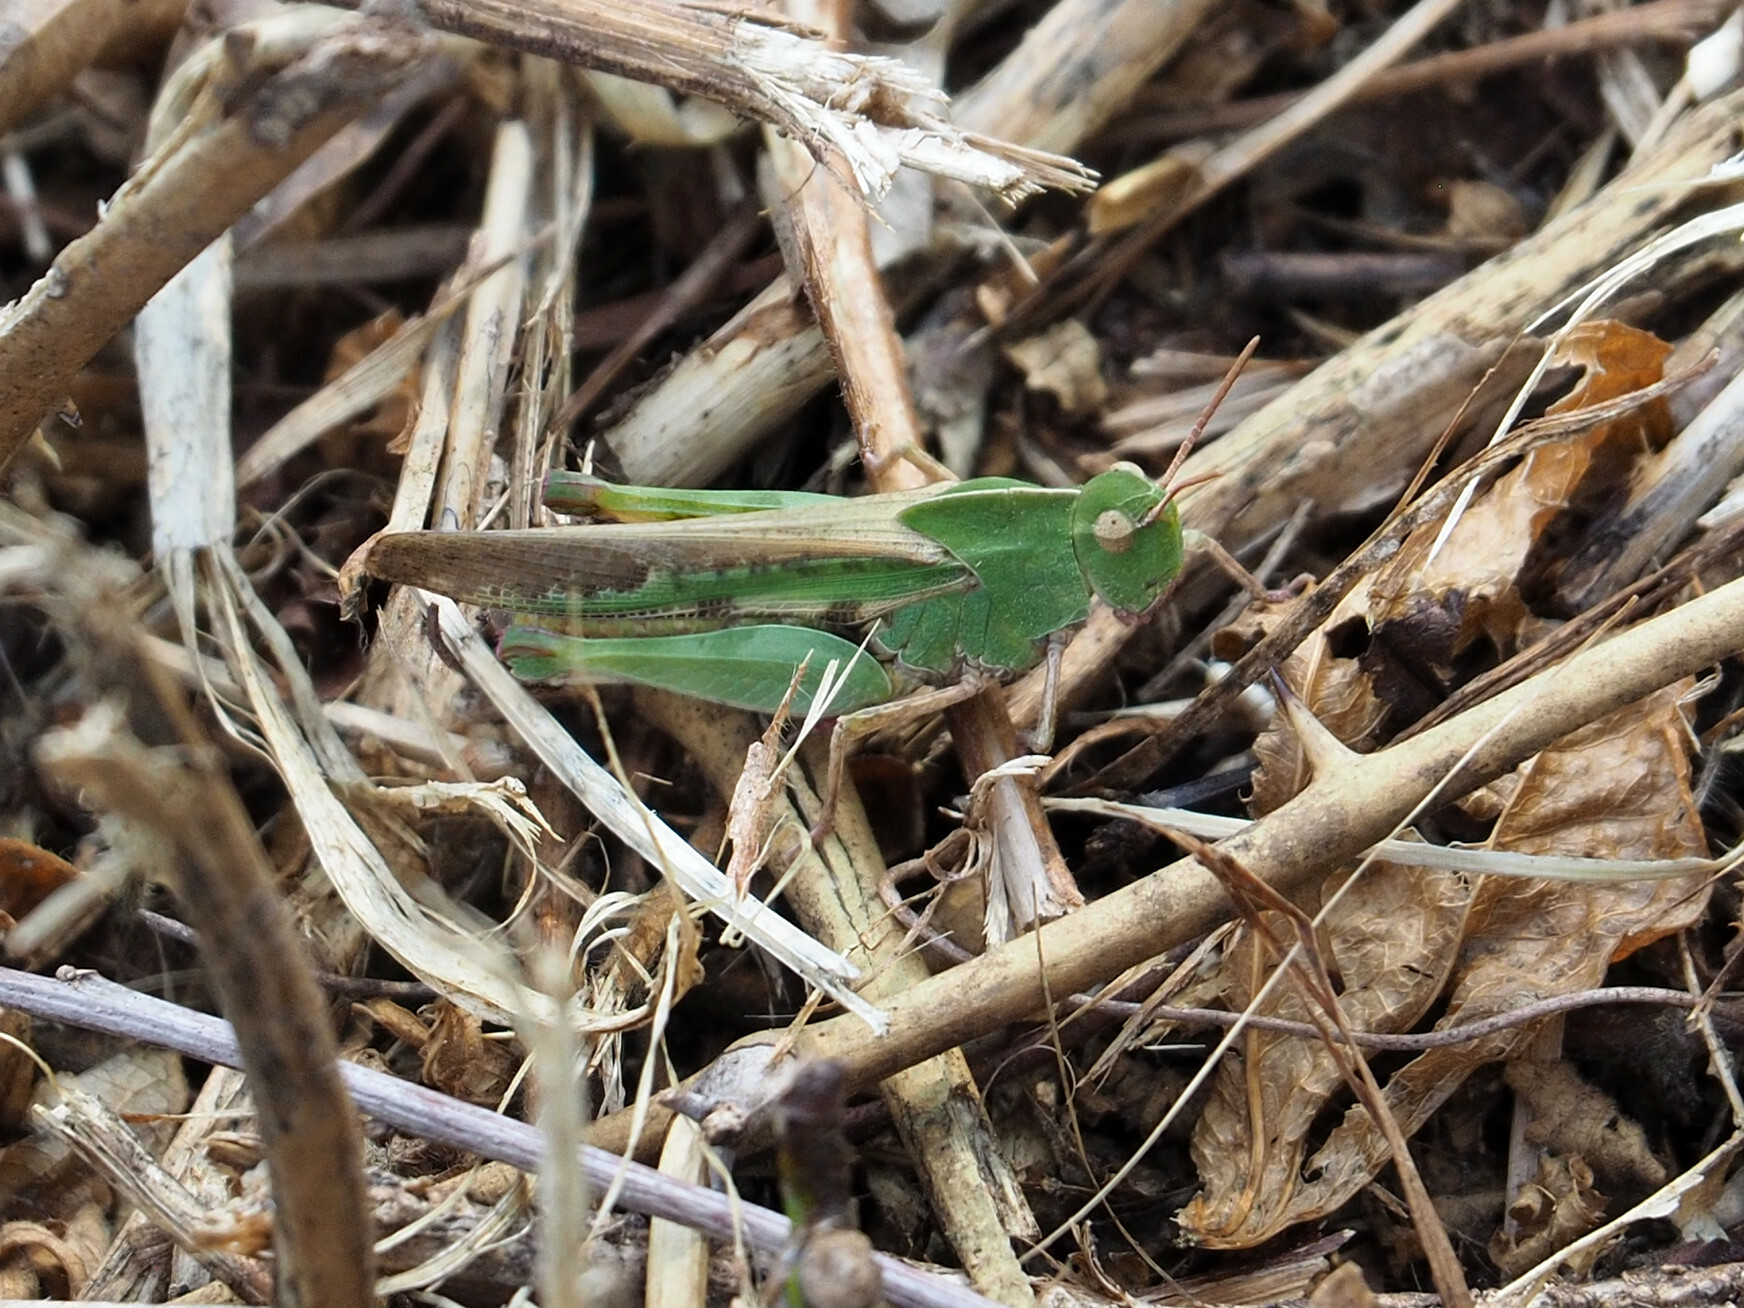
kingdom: Animalia
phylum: Arthropoda
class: Insecta
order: Orthoptera
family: Acrididae
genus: Chortophaga
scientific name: Chortophaga viridifasciata
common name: Green-striped grasshopper
